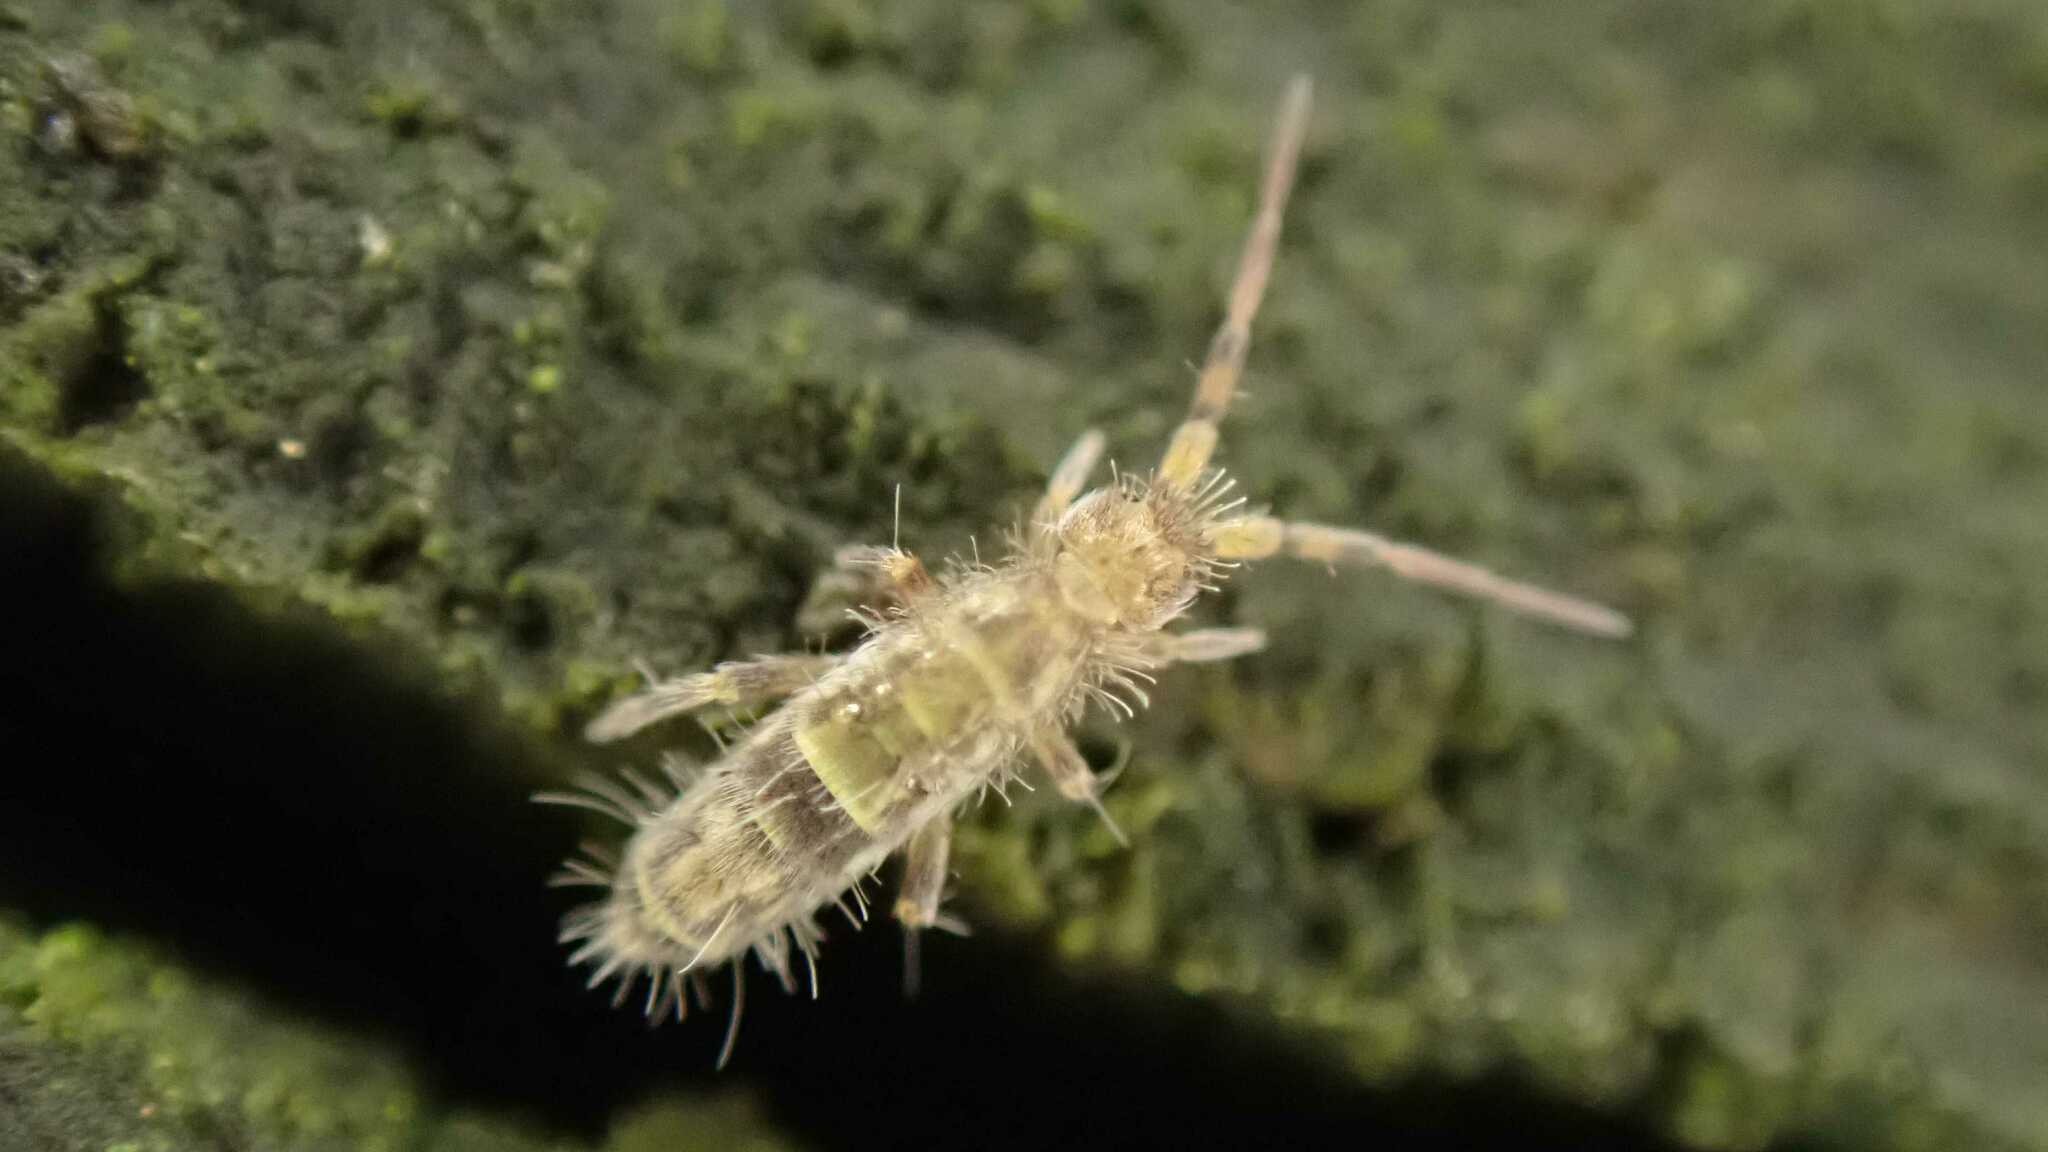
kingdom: Animalia
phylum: Arthropoda
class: Collembola
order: Entomobryomorpha
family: Orchesellidae
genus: Orchesella
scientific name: Orchesella cincta
